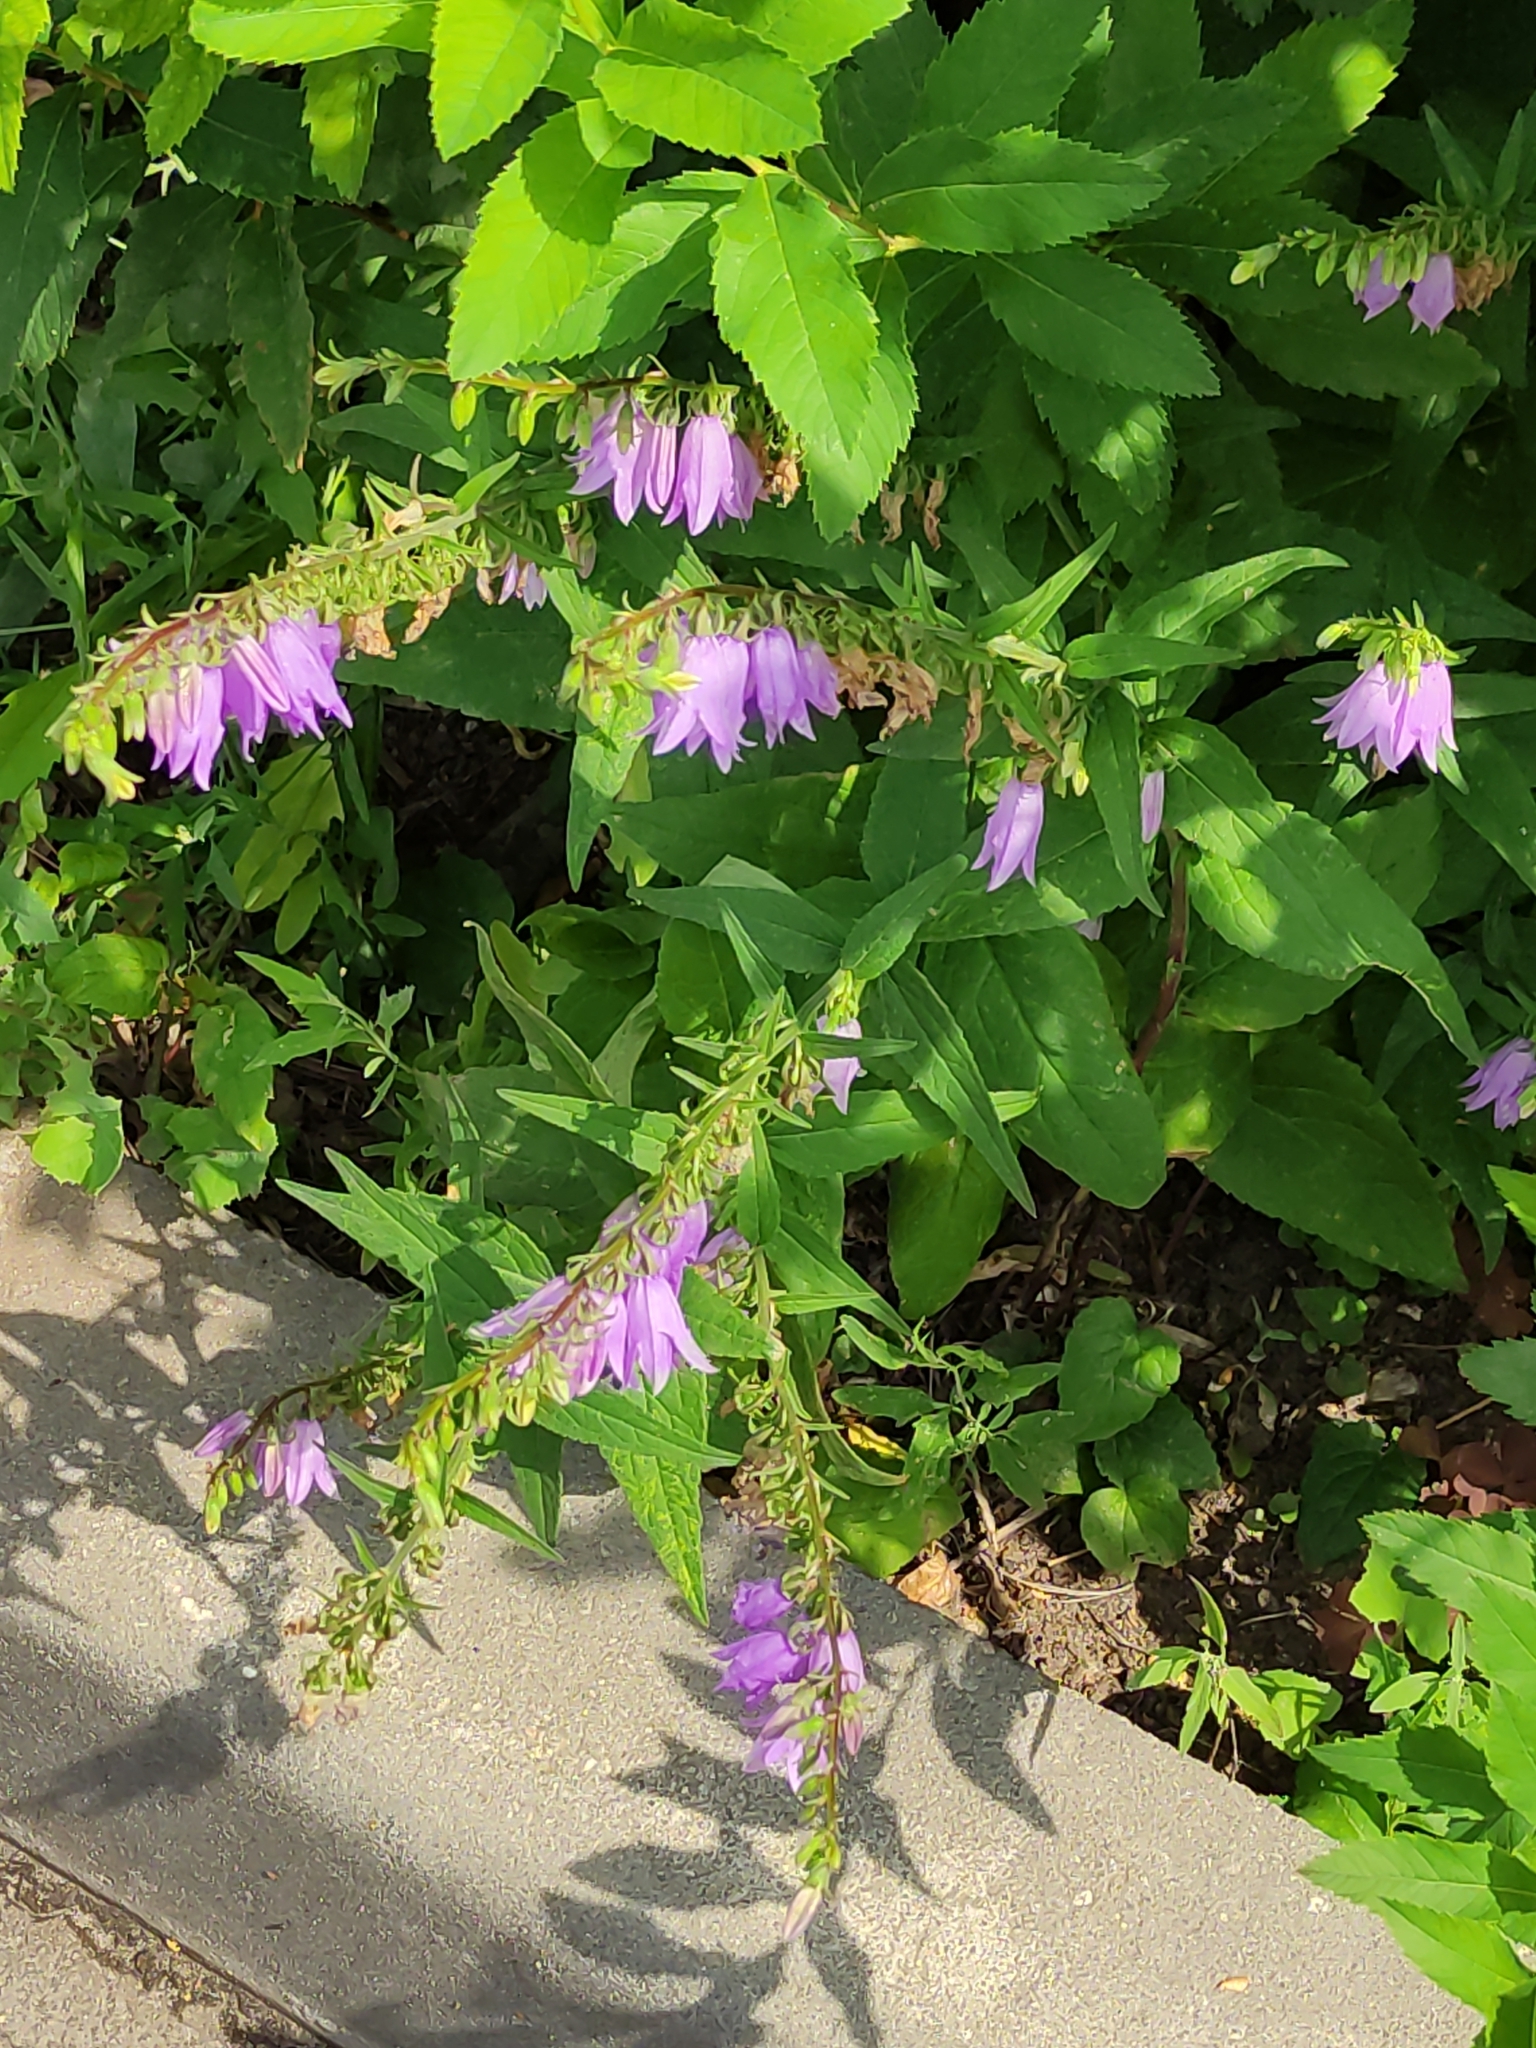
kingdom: Plantae
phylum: Tracheophyta
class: Magnoliopsida
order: Asterales
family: Campanulaceae
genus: Campanula
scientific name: Campanula rapunculoides
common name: Creeping bellflower
